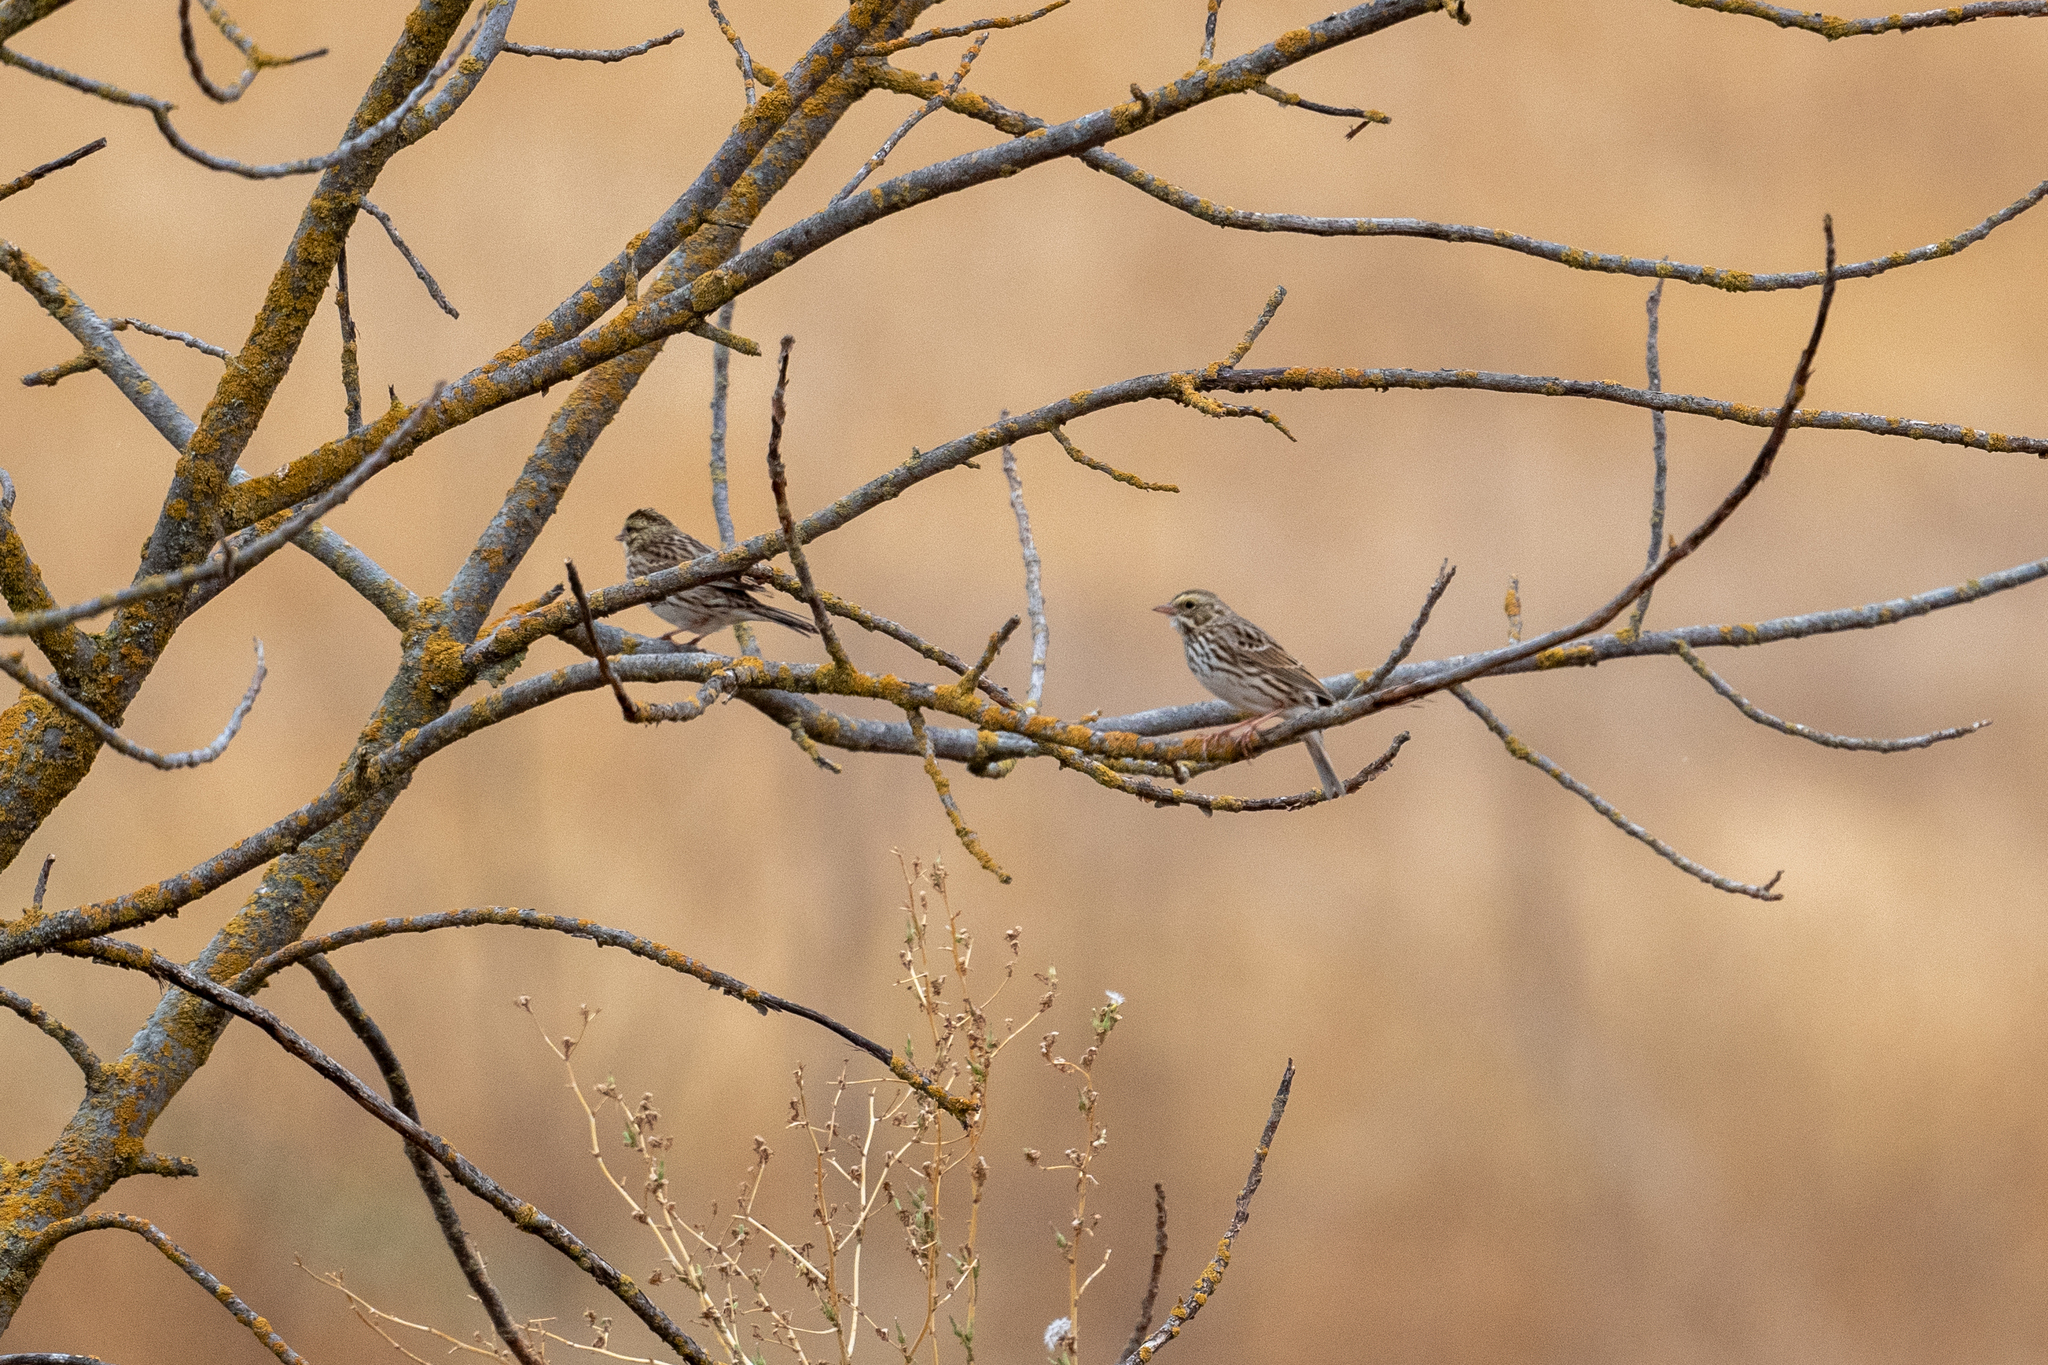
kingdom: Animalia
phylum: Chordata
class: Aves
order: Passeriformes
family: Passerellidae
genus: Passerculus
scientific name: Passerculus sandwichensis
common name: Savannah sparrow
